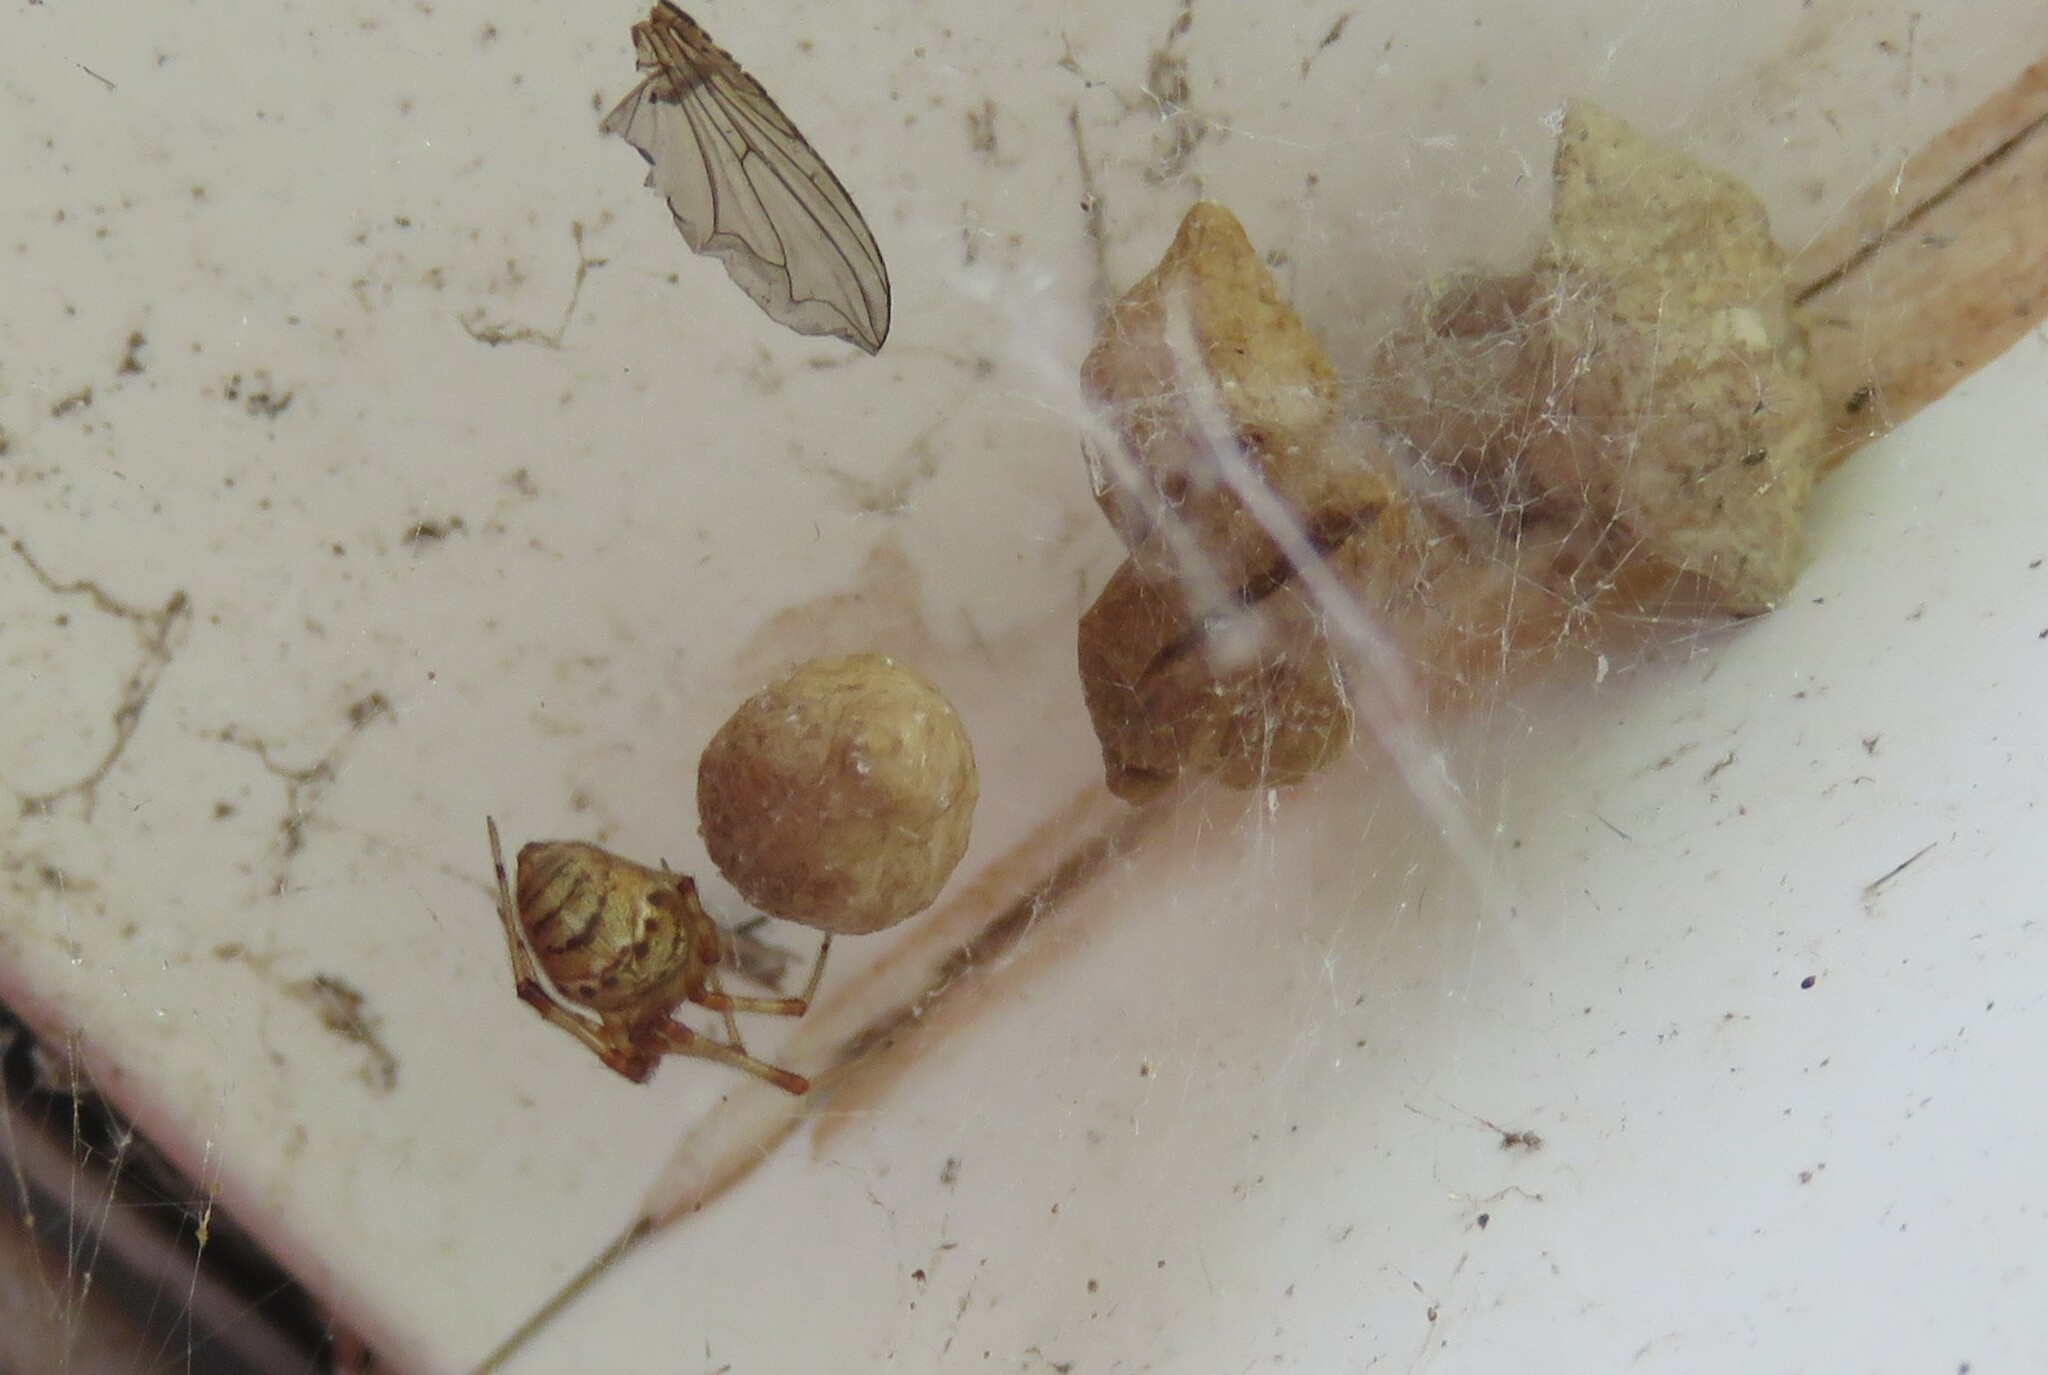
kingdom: Animalia
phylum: Arthropoda
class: Arachnida
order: Araneae
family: Theridiidae
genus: Parasteatoda
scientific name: Parasteatoda tepidariorum
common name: Common house spider
